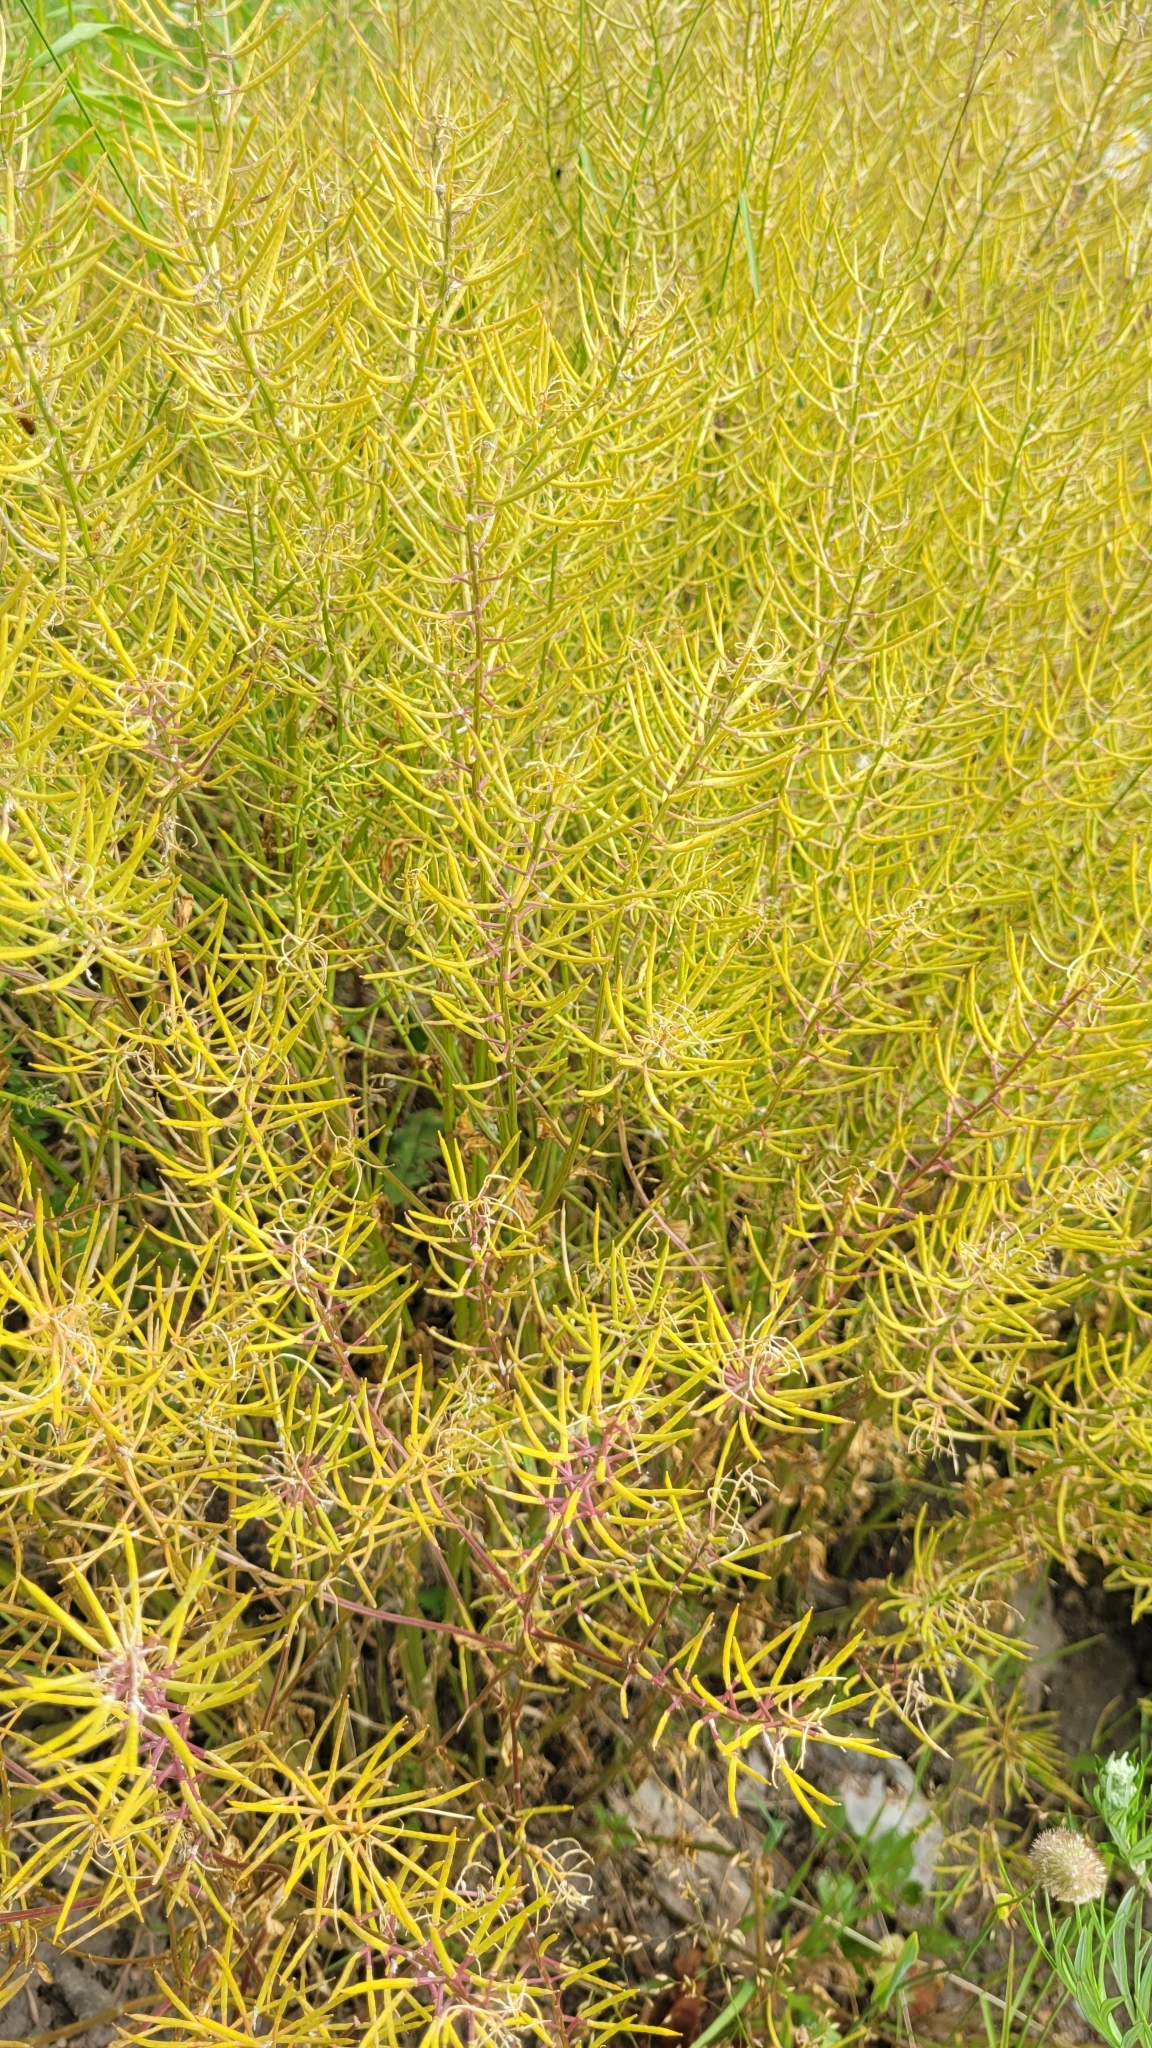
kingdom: Plantae
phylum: Tracheophyta
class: Magnoliopsida
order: Brassicales
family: Brassicaceae
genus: Barbarea
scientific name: Barbarea vulgaris
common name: Cressy-greens
